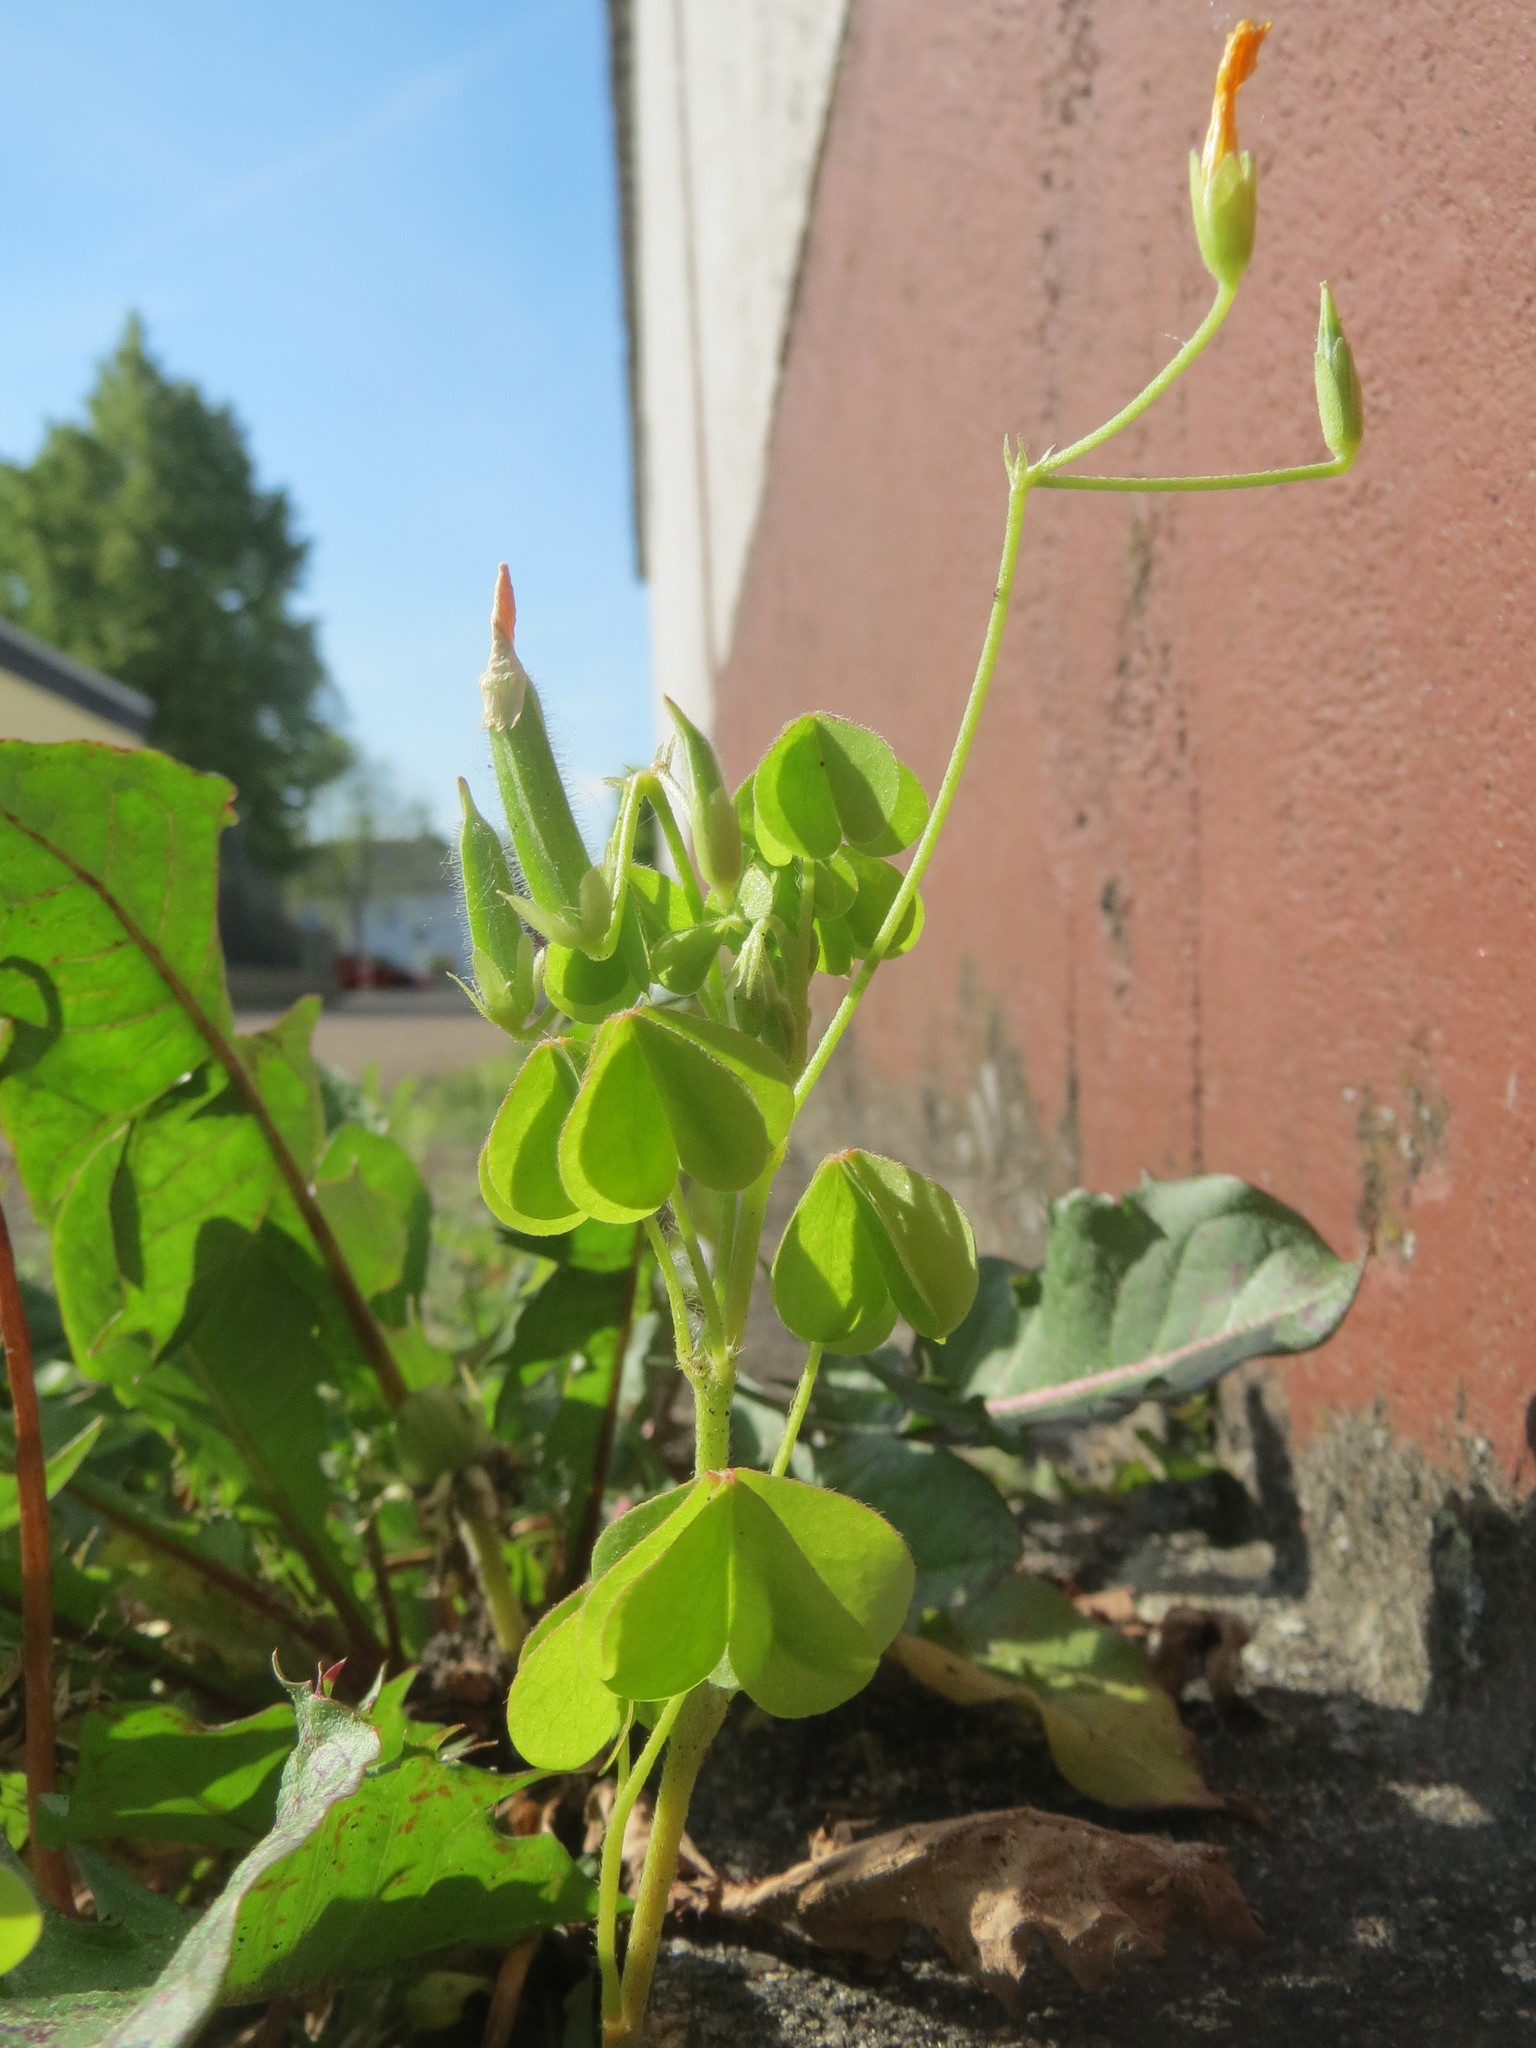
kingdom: Plantae
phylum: Tracheophyta
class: Magnoliopsida
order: Oxalidales
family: Oxalidaceae
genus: Oxalis
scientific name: Oxalis dillenii
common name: Sussex yellow-sorrel
